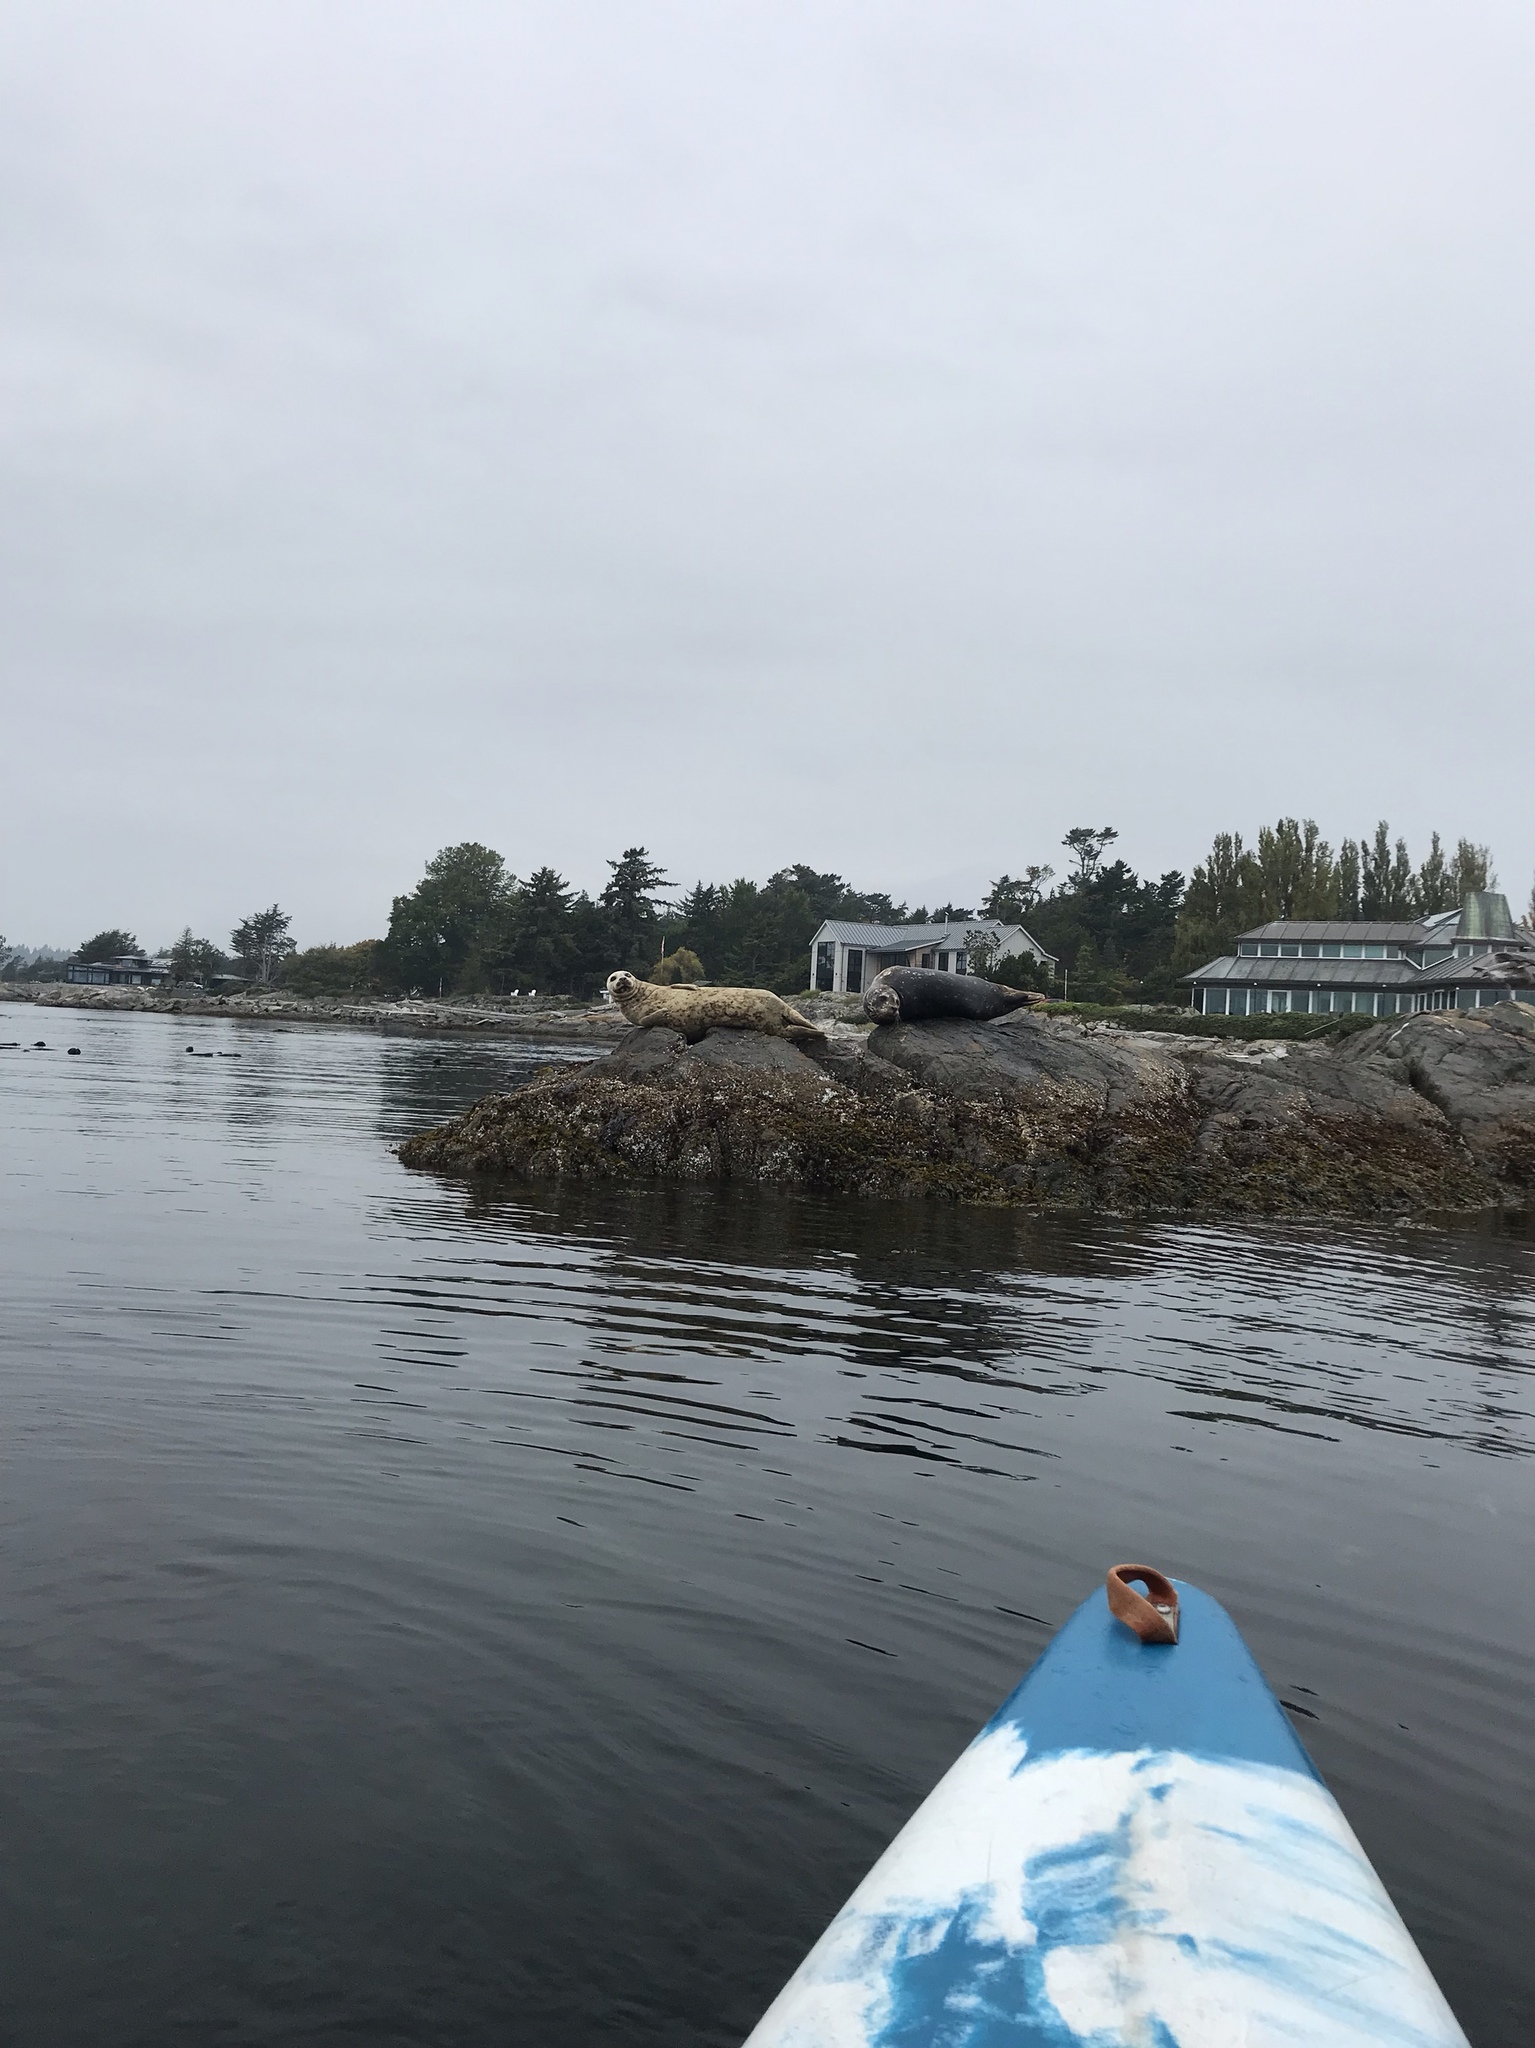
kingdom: Animalia
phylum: Chordata
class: Mammalia
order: Carnivora
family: Phocidae
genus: Phoca
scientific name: Phoca vitulina
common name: Harbor seal
